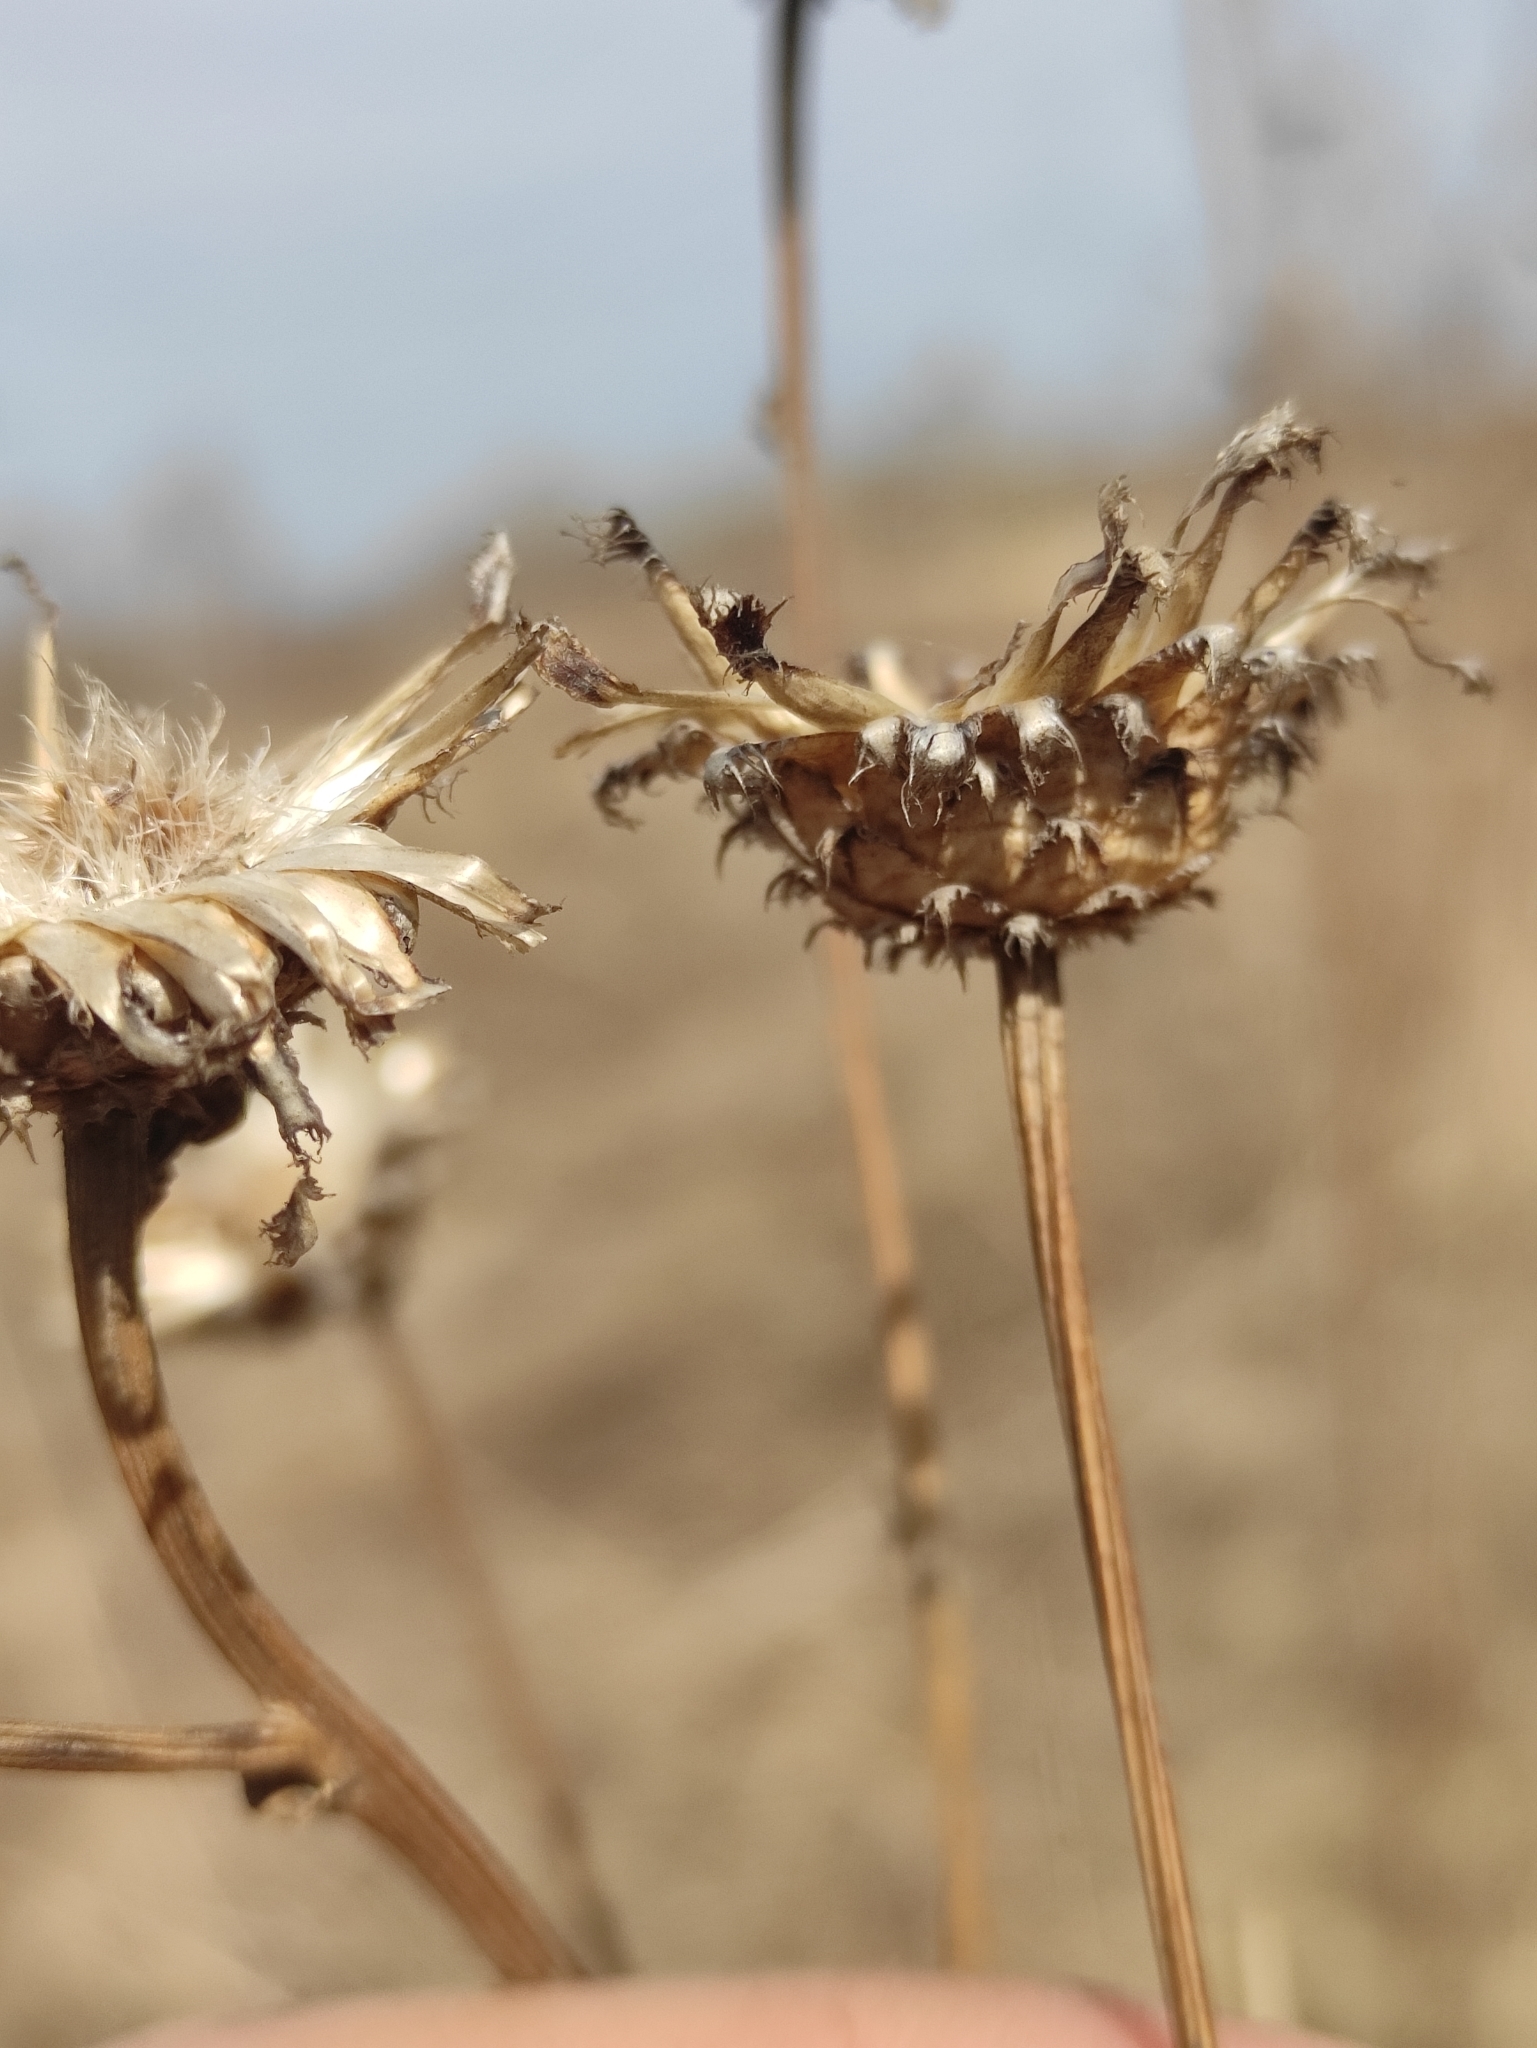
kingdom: Plantae
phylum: Tracheophyta
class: Magnoliopsida
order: Asterales
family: Asteraceae
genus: Klasea
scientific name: Klasea centauroides
